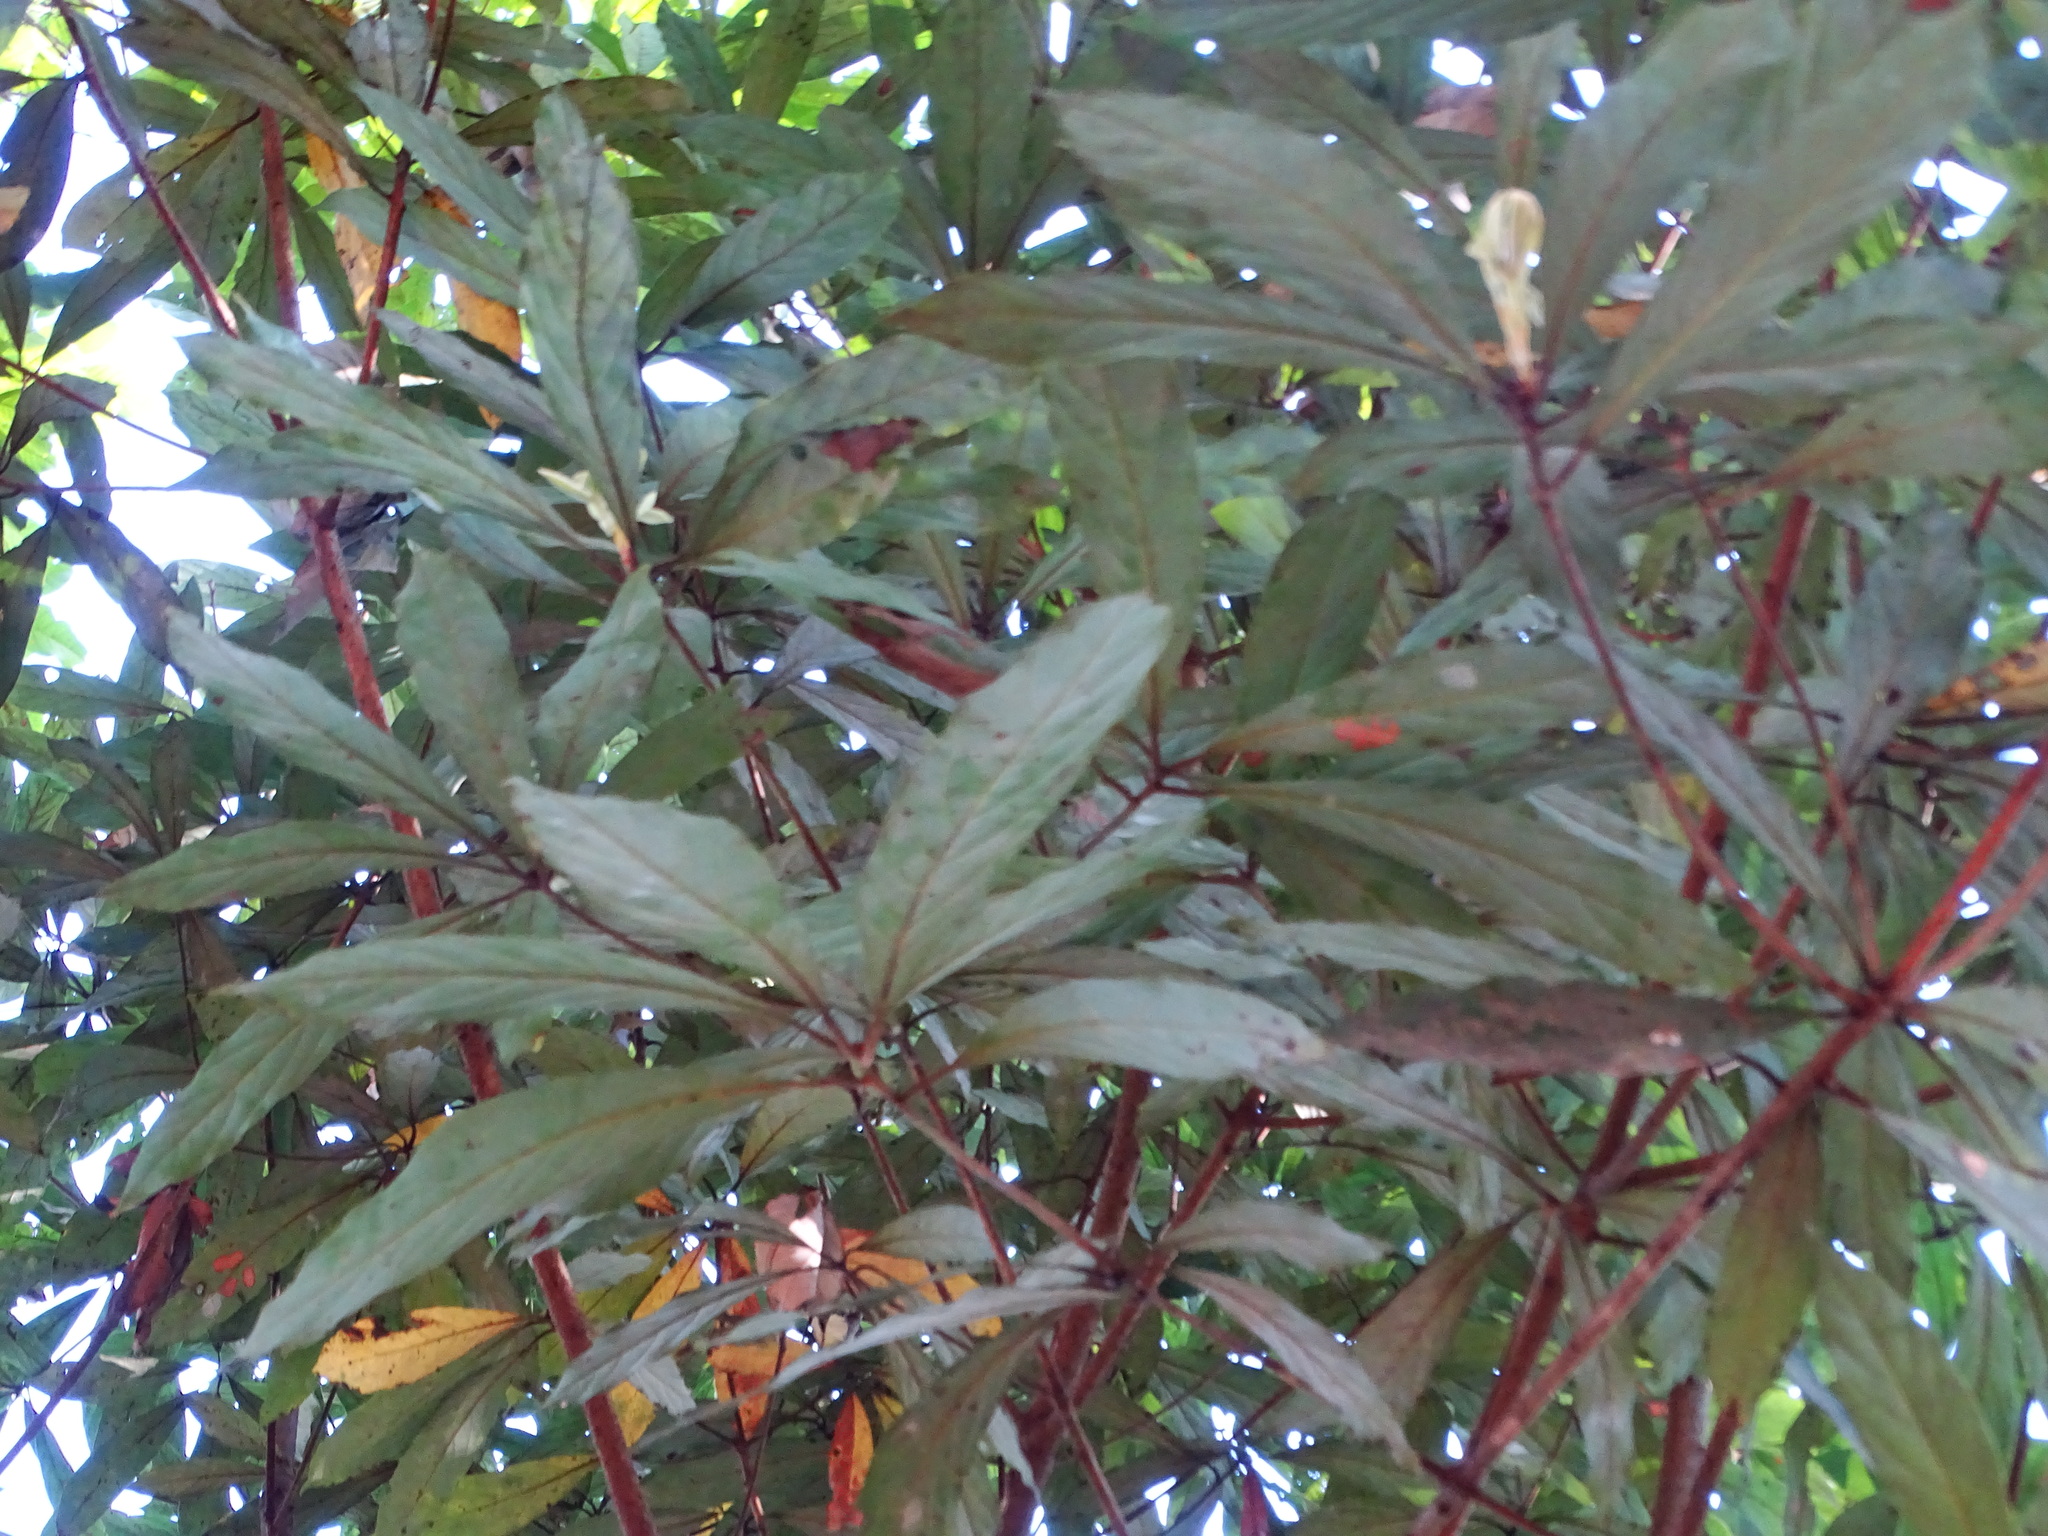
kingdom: Plantae
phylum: Tracheophyta
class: Magnoliopsida
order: Laurales
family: Lauraceae
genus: Actinodaphne
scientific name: Actinodaphne bourdillonii
